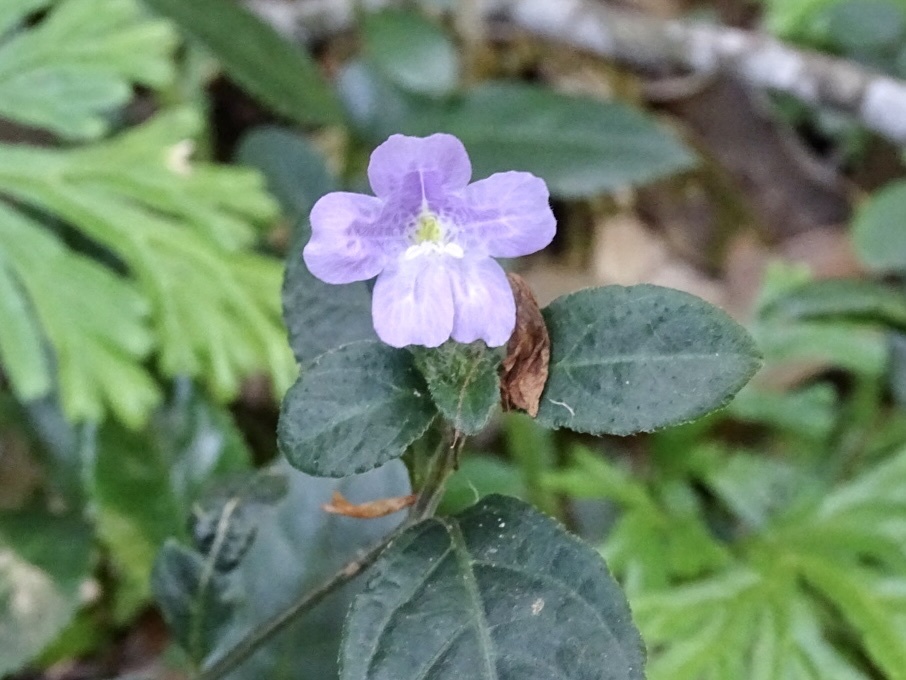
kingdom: Plantae
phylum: Tracheophyta
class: Magnoliopsida
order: Lamiales
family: Acanthaceae
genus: Strobilanthes
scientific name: Strobilanthes tetrasperma
